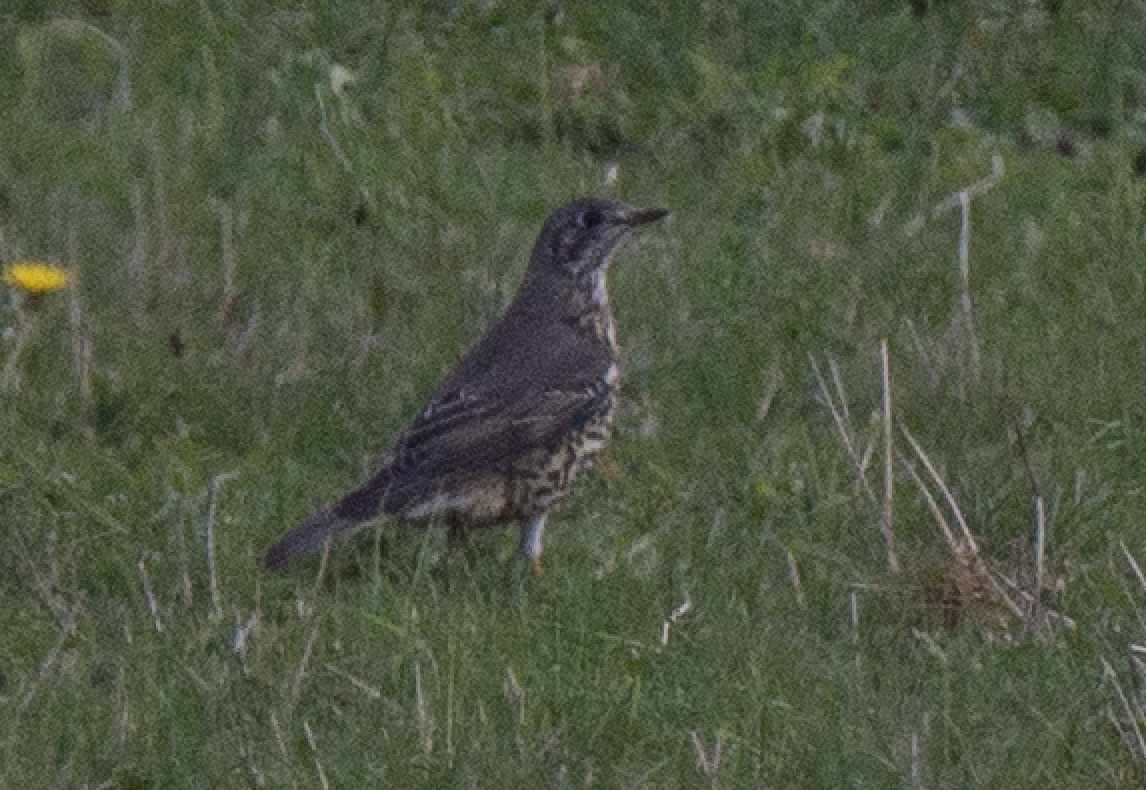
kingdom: Animalia
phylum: Chordata
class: Aves
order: Passeriformes
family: Turdidae
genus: Turdus
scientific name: Turdus viscivorus
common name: Mistle thrush
